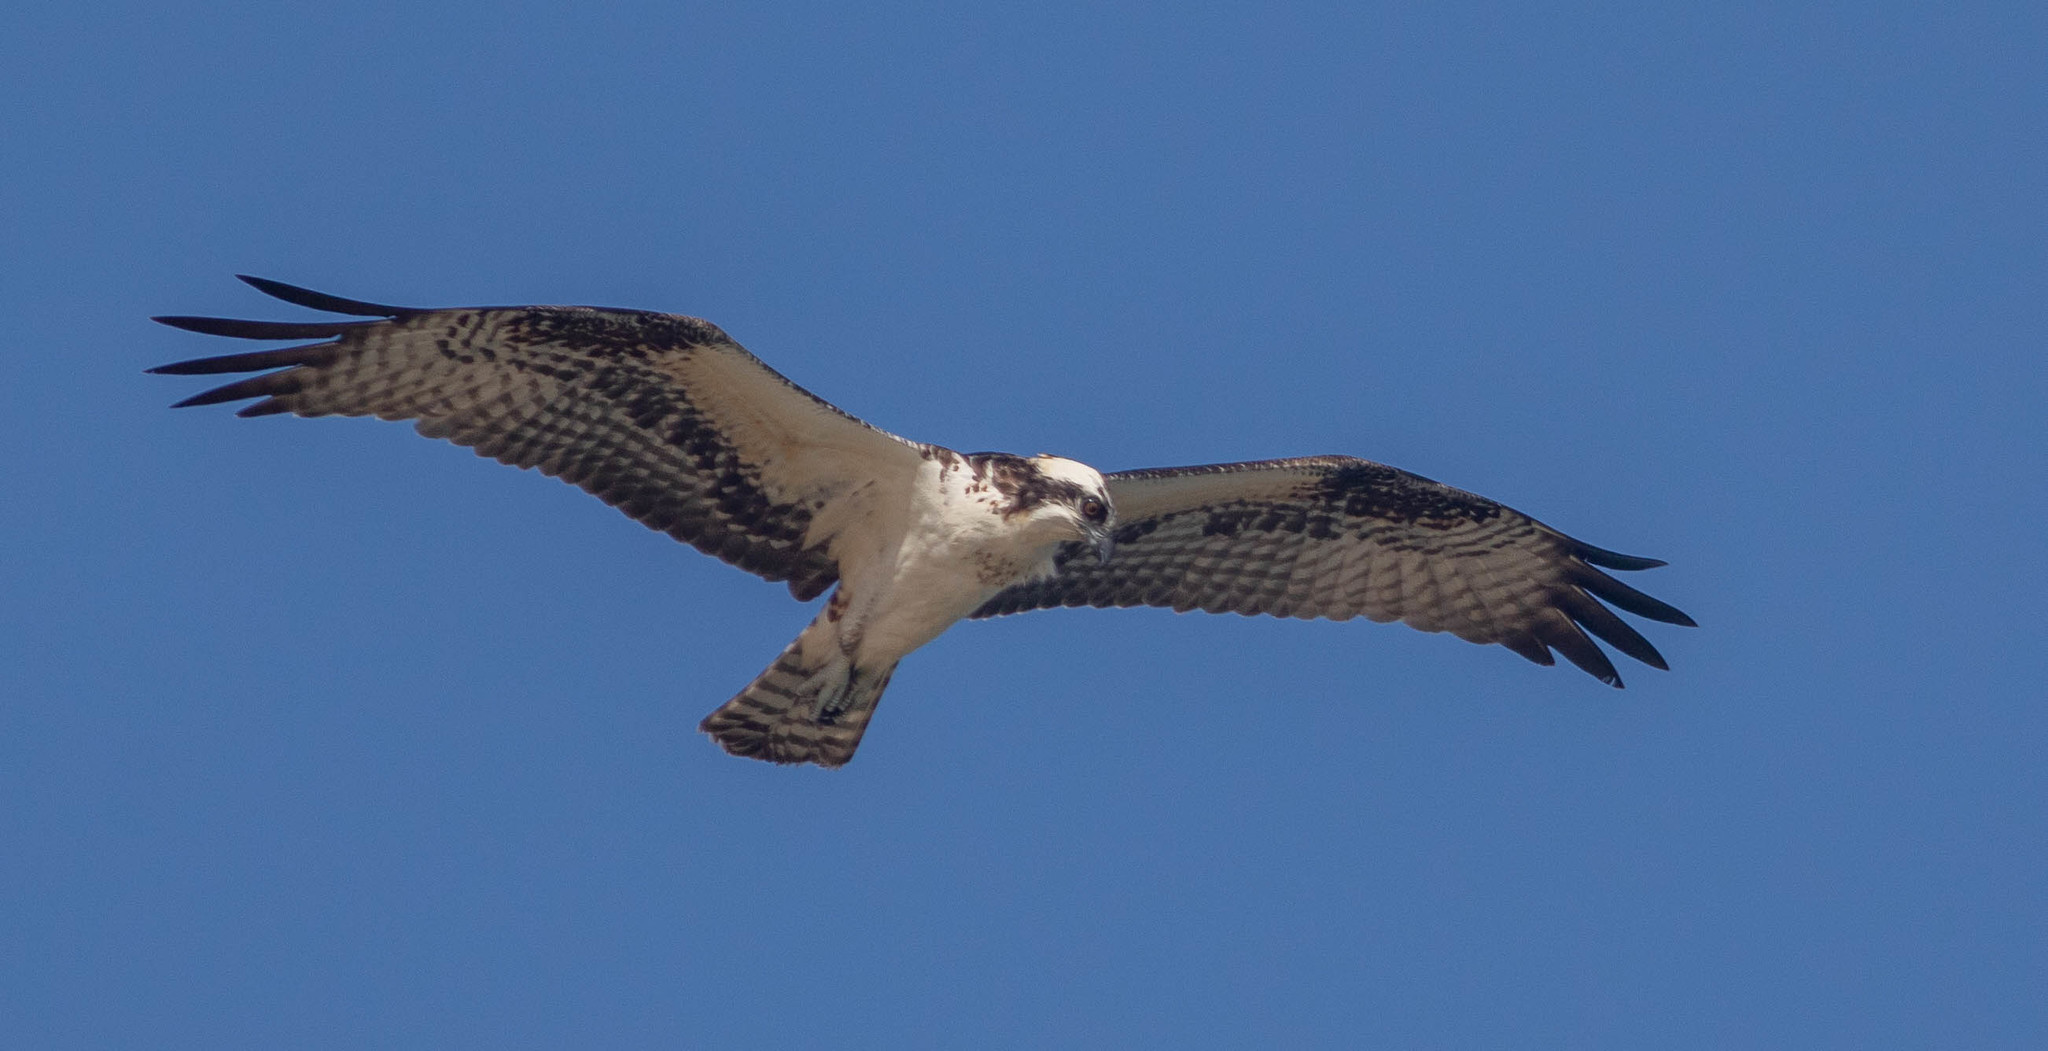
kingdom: Animalia
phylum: Chordata
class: Aves
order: Accipitriformes
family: Pandionidae
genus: Pandion
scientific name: Pandion haliaetus
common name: Osprey
